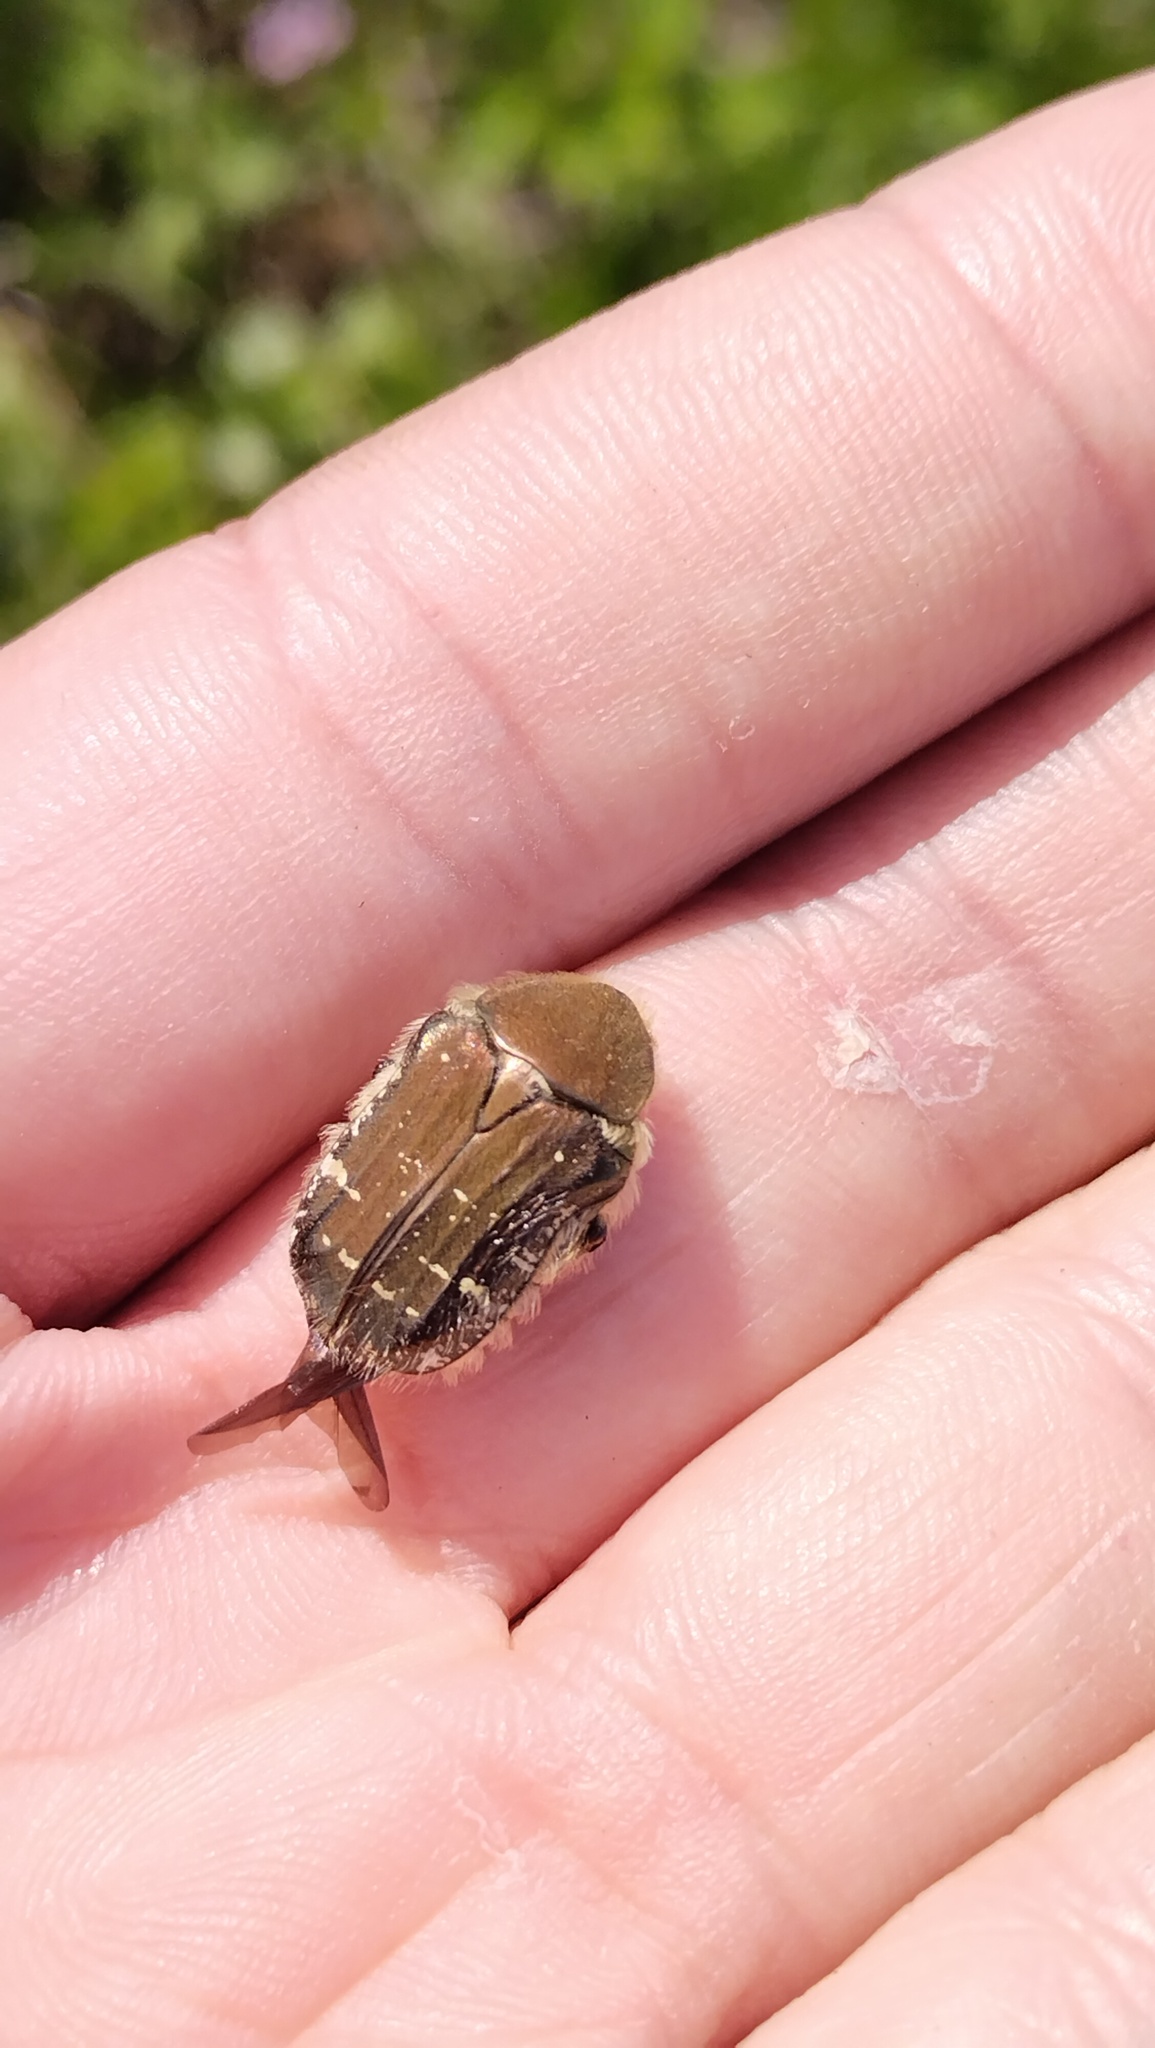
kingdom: Animalia
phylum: Arthropoda
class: Insecta
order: Coleoptera
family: Scarabaeidae
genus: Cetonia
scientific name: Cetonia magnifica
